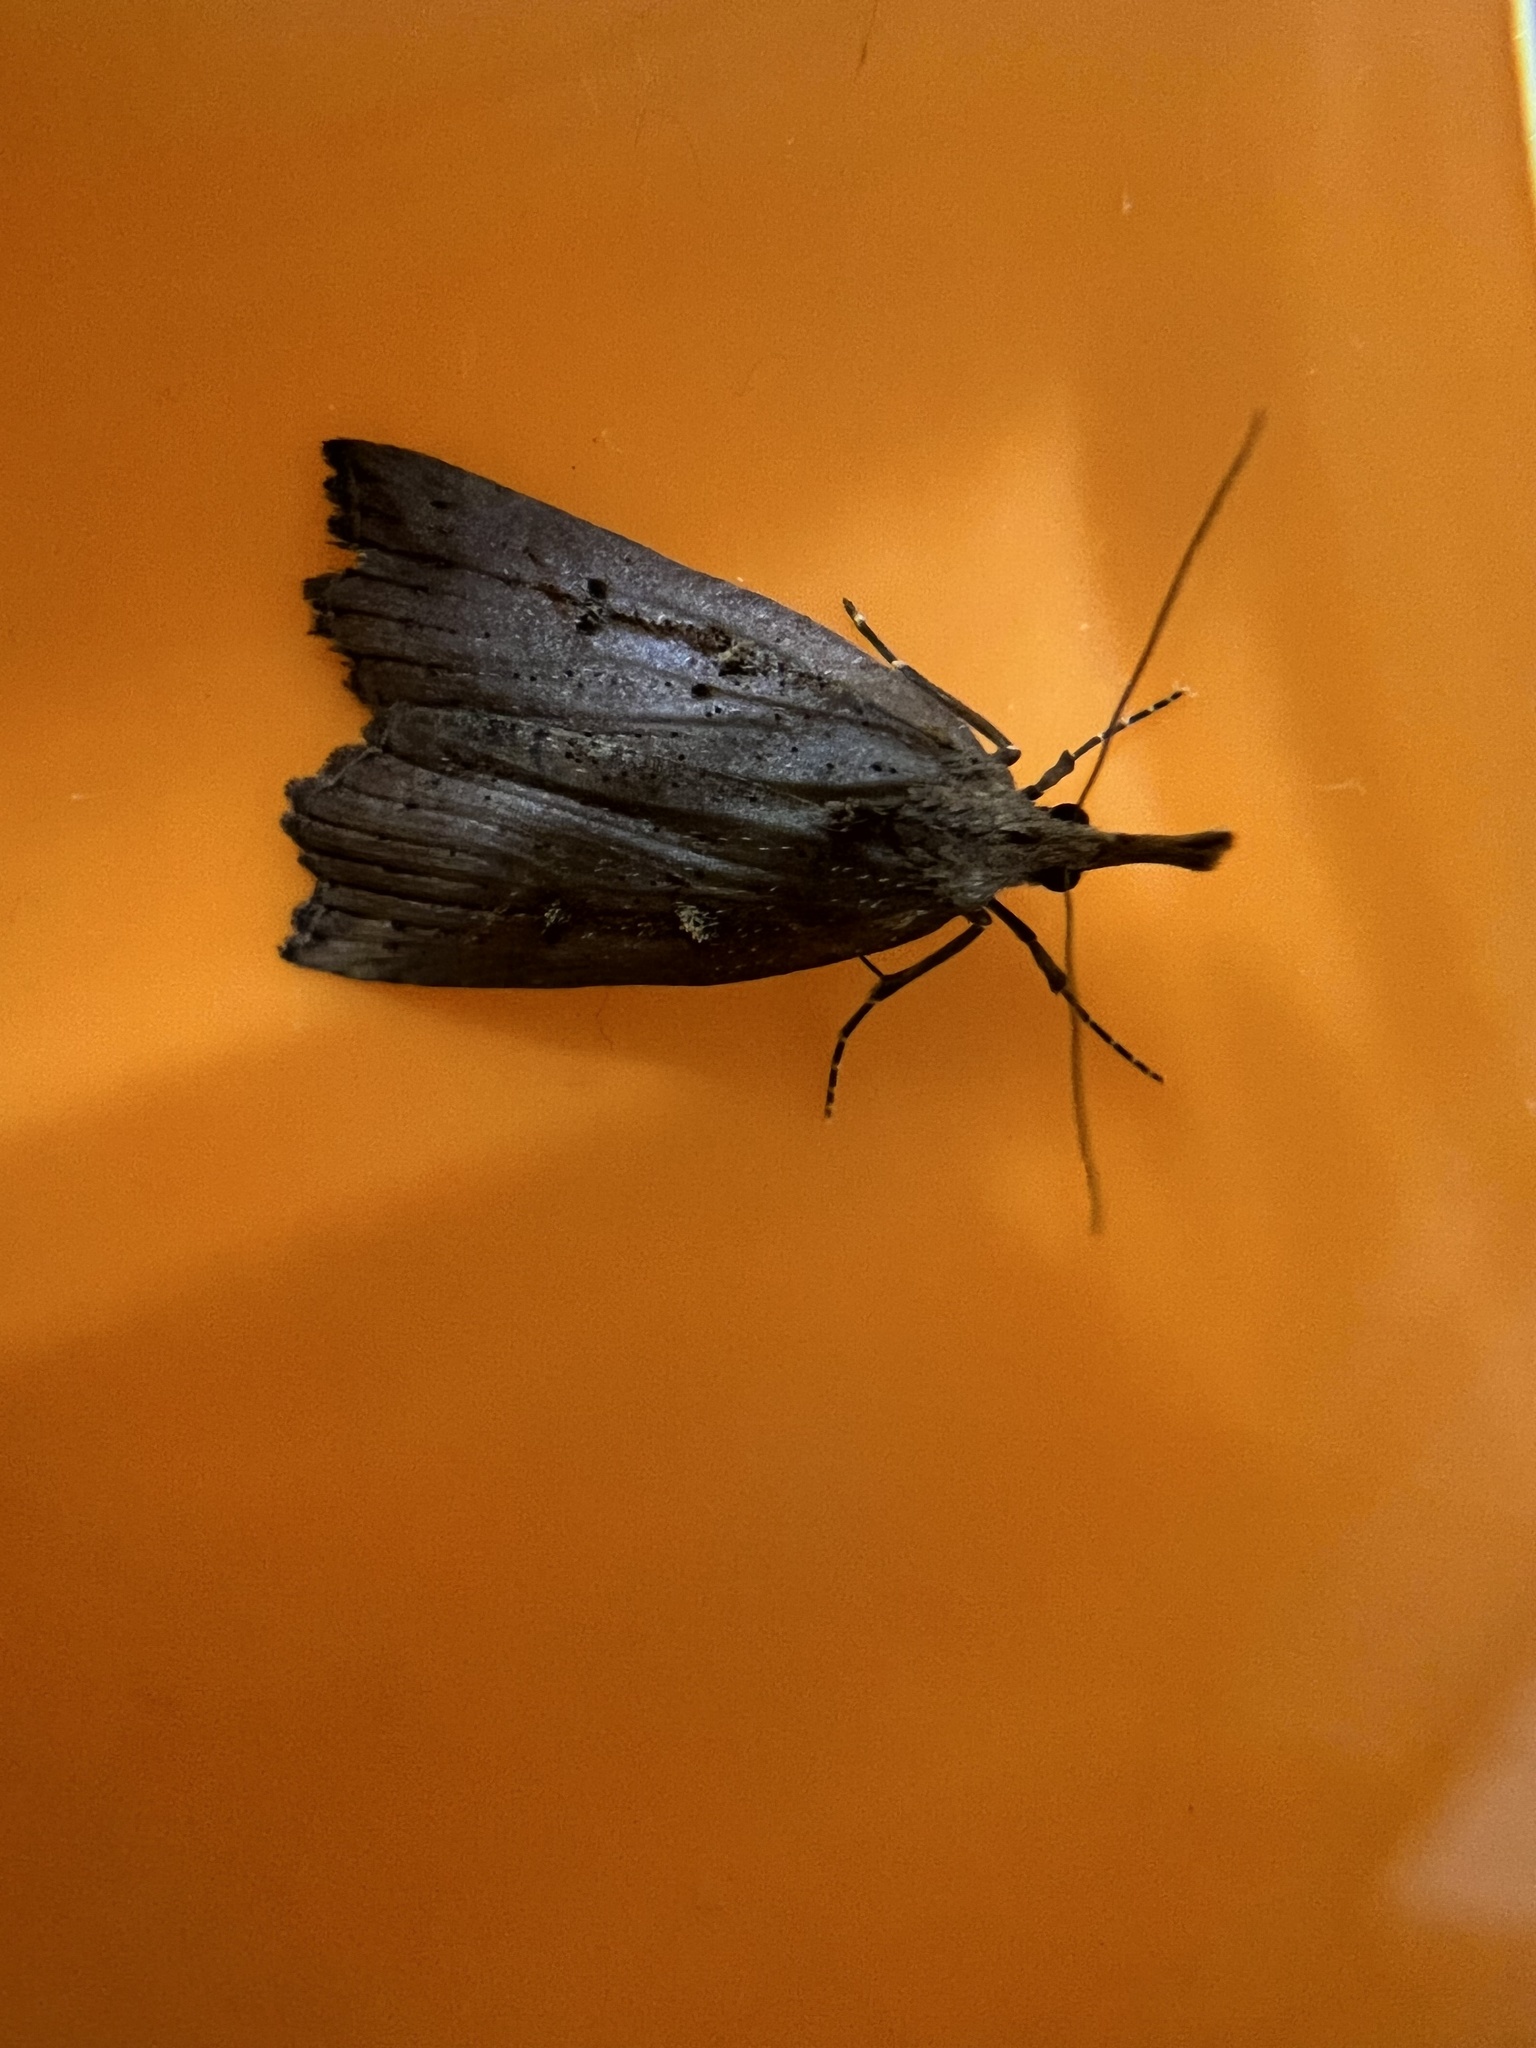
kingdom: Animalia
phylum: Arthropoda
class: Insecta
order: Lepidoptera
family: Erebidae
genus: Hypena
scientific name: Hypena californica
